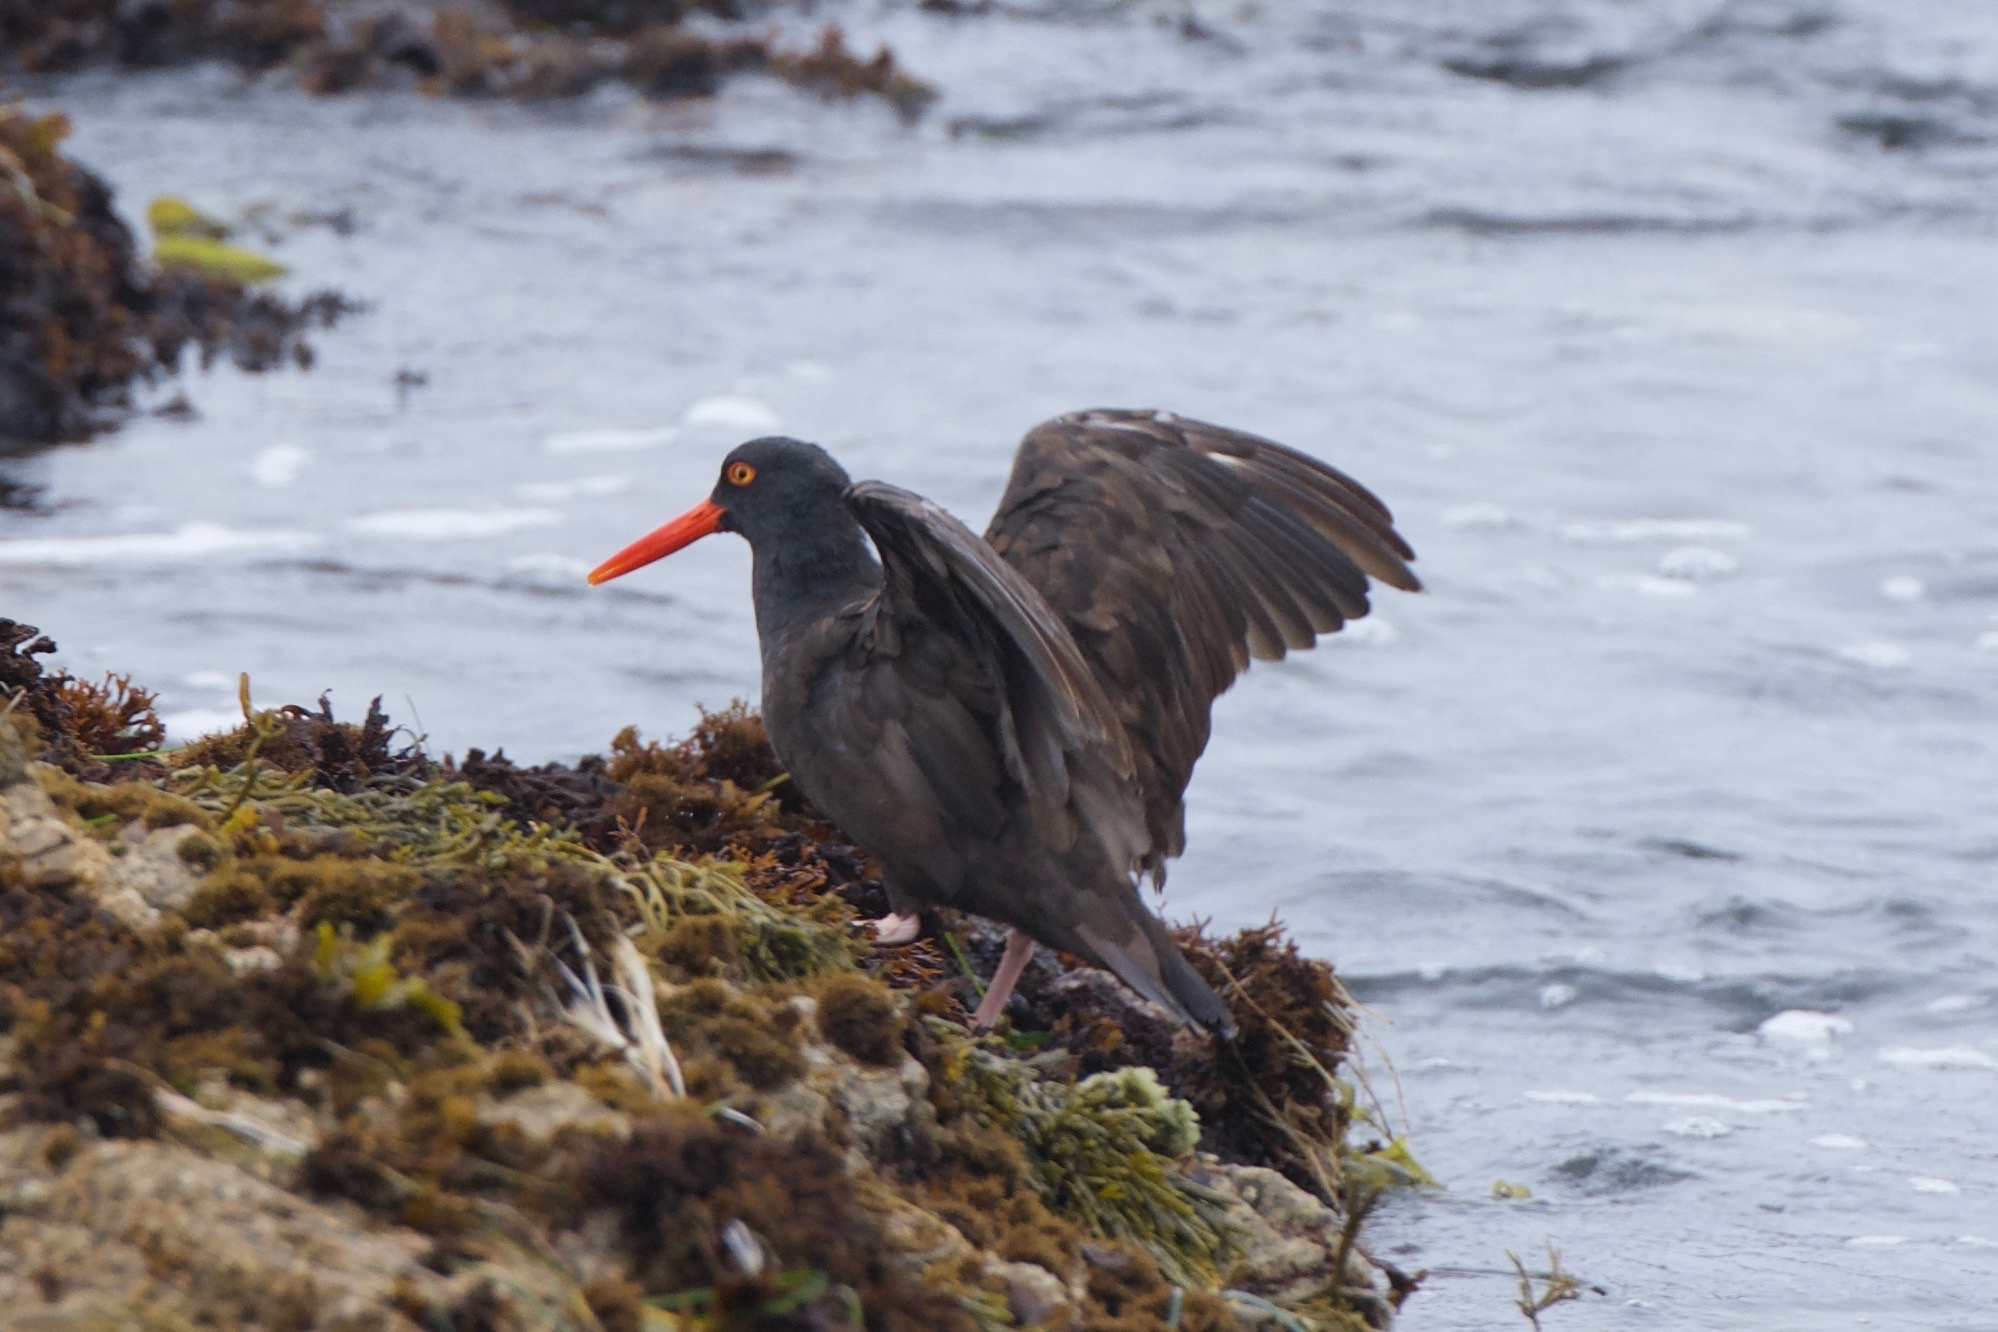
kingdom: Animalia
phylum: Chordata
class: Aves
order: Charadriiformes
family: Haematopodidae
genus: Haematopus
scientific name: Haematopus bachmani
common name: Black oystercatcher
